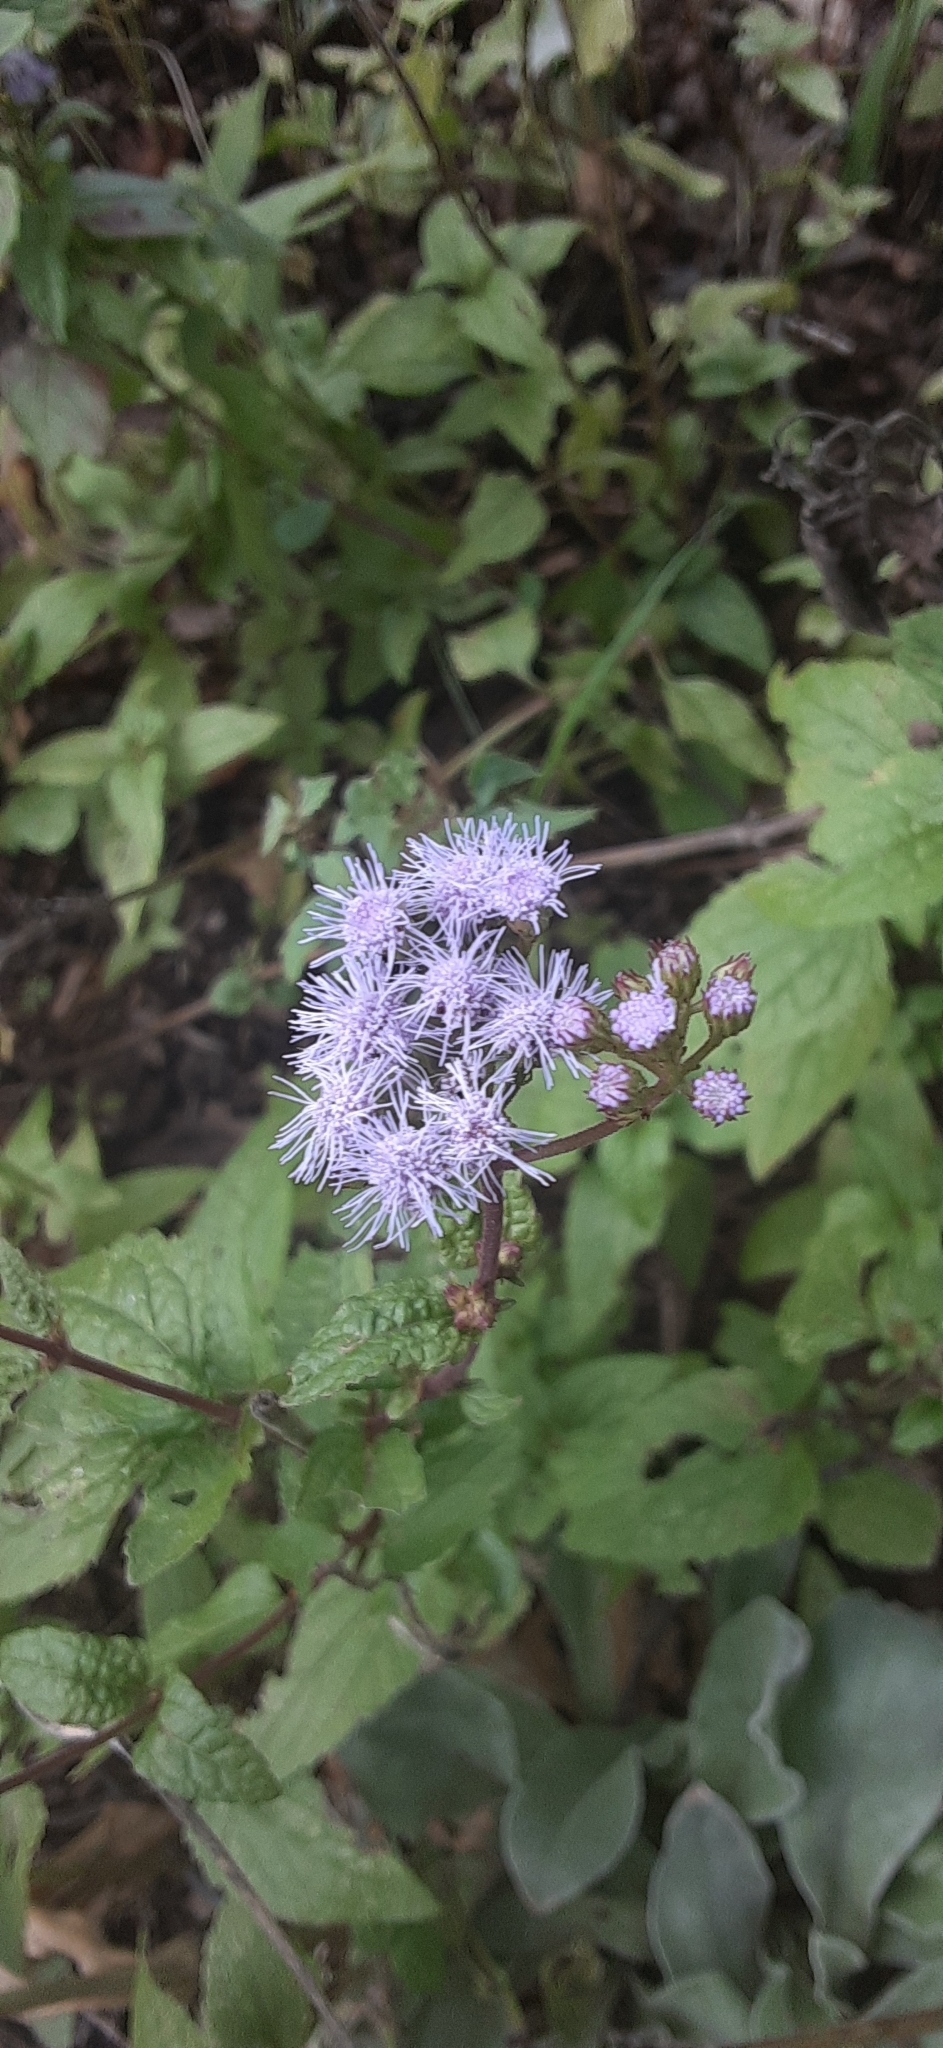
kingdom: Plantae
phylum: Tracheophyta
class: Magnoliopsida
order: Asterales
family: Asteraceae
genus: Conoclinium
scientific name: Conoclinium coelestinum
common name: Blue mistflower
